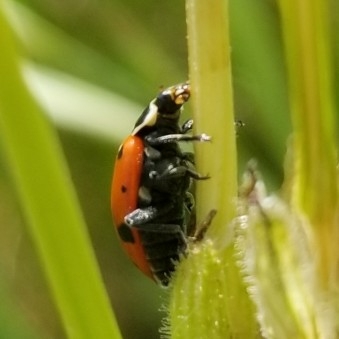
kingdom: Animalia
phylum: Arthropoda
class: Insecta
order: Coleoptera
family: Coccinellidae
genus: Hippodamia
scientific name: Hippodamia convergens
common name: Convergent lady beetle
